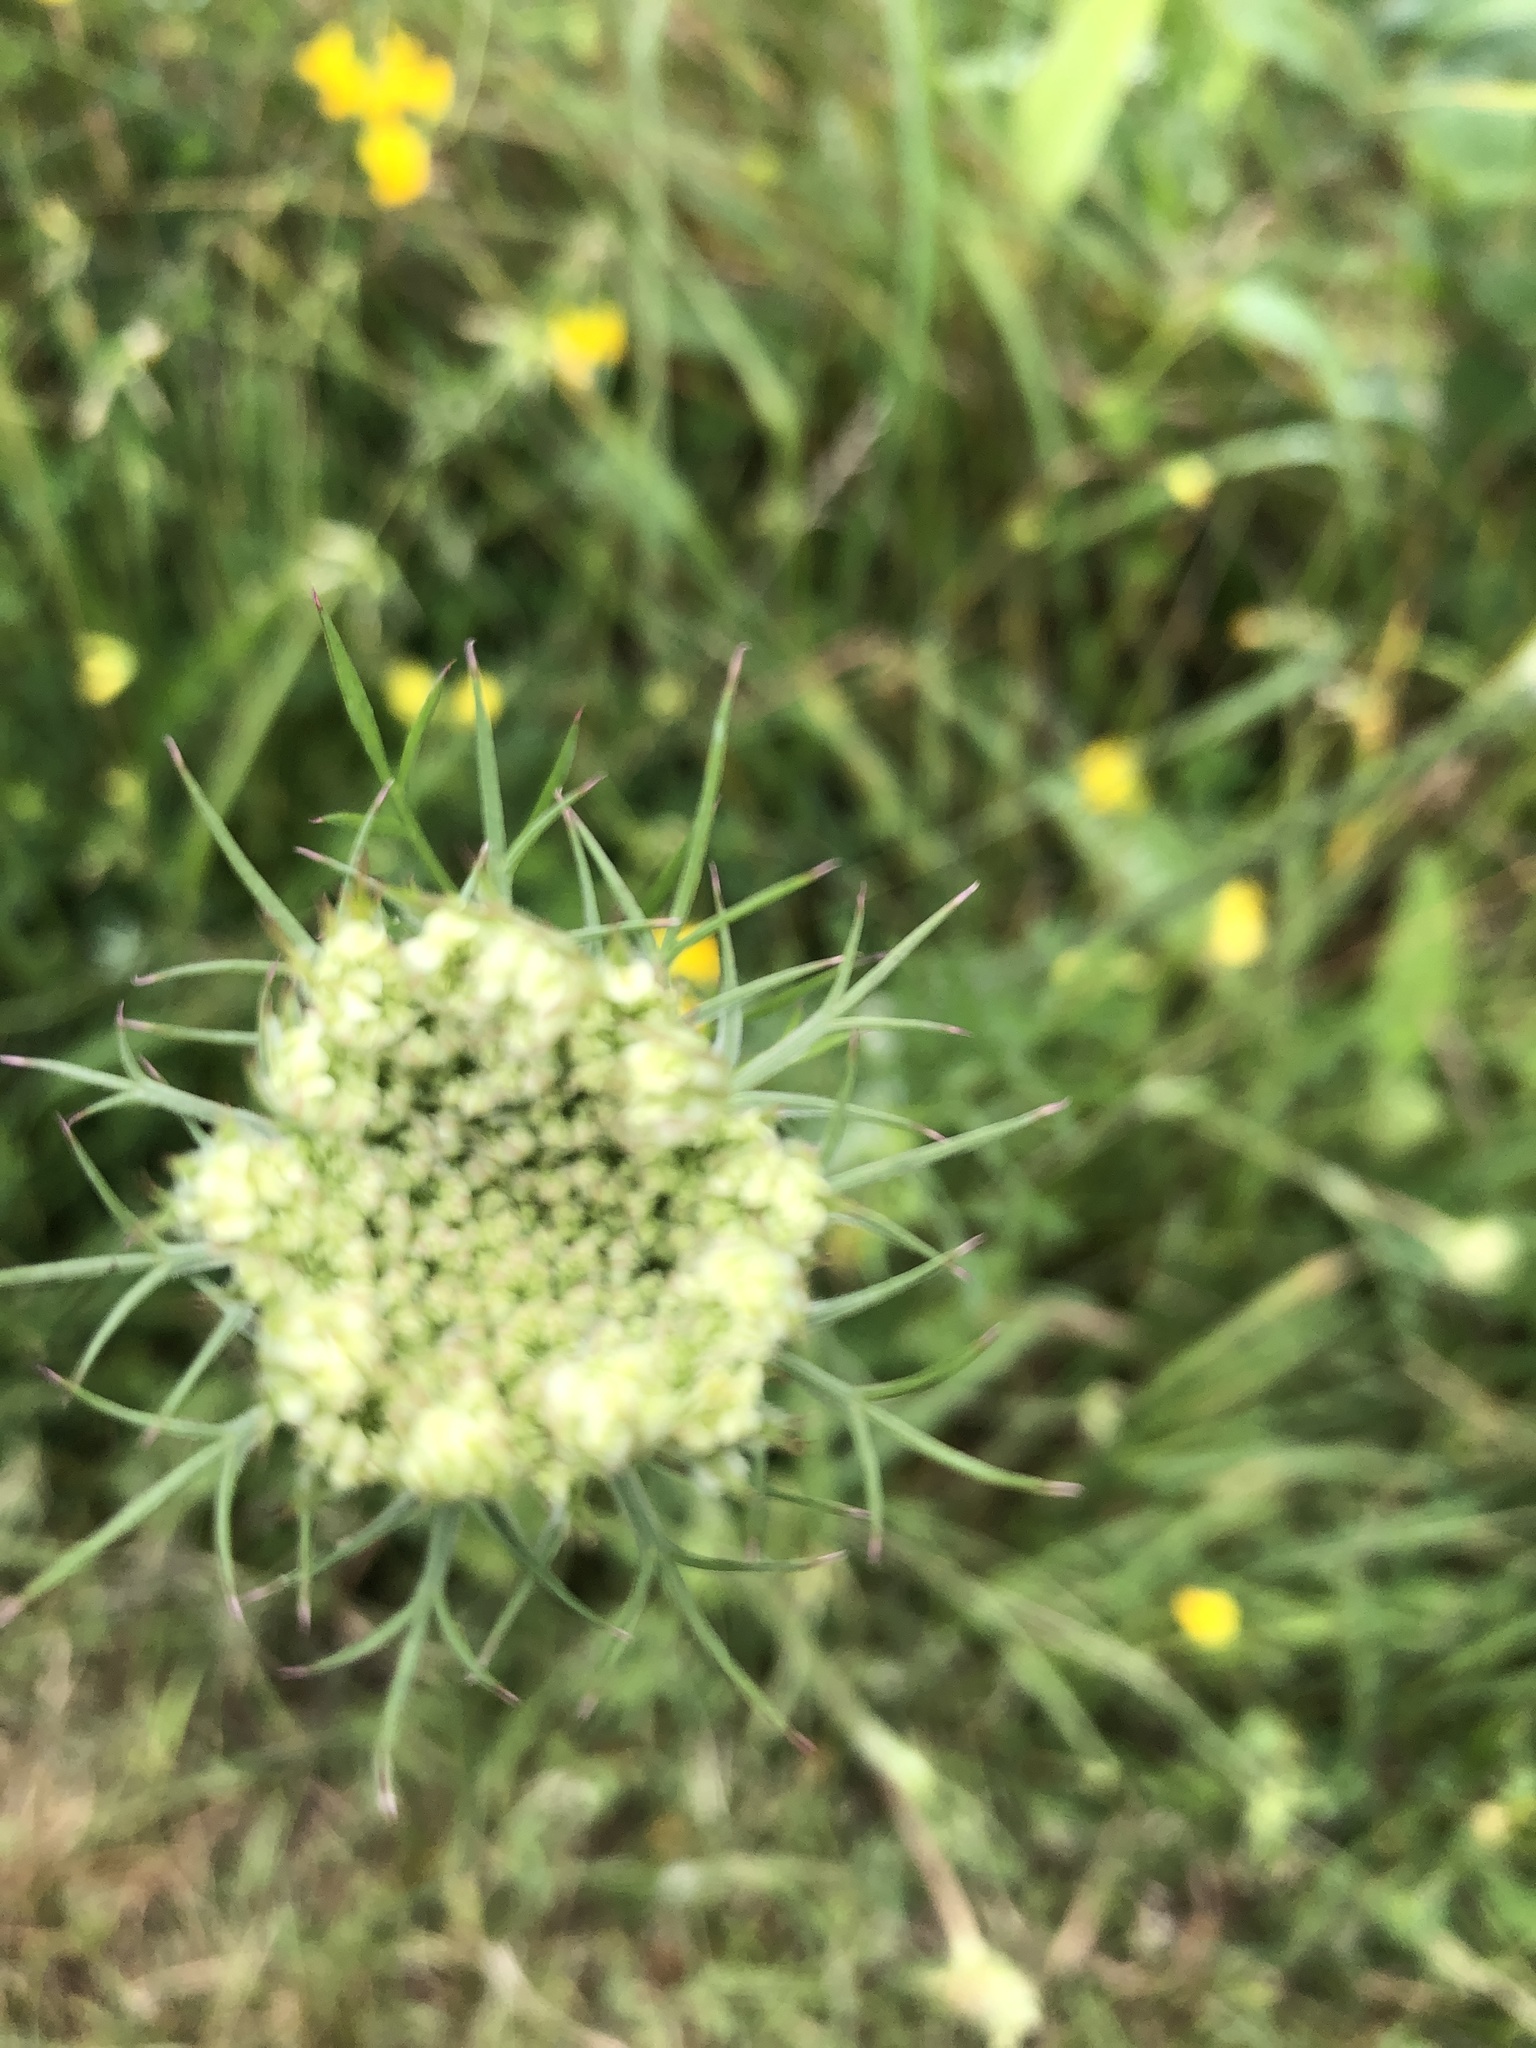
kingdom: Plantae
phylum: Tracheophyta
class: Magnoliopsida
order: Apiales
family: Apiaceae
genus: Daucus
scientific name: Daucus carota
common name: Wild carrot
